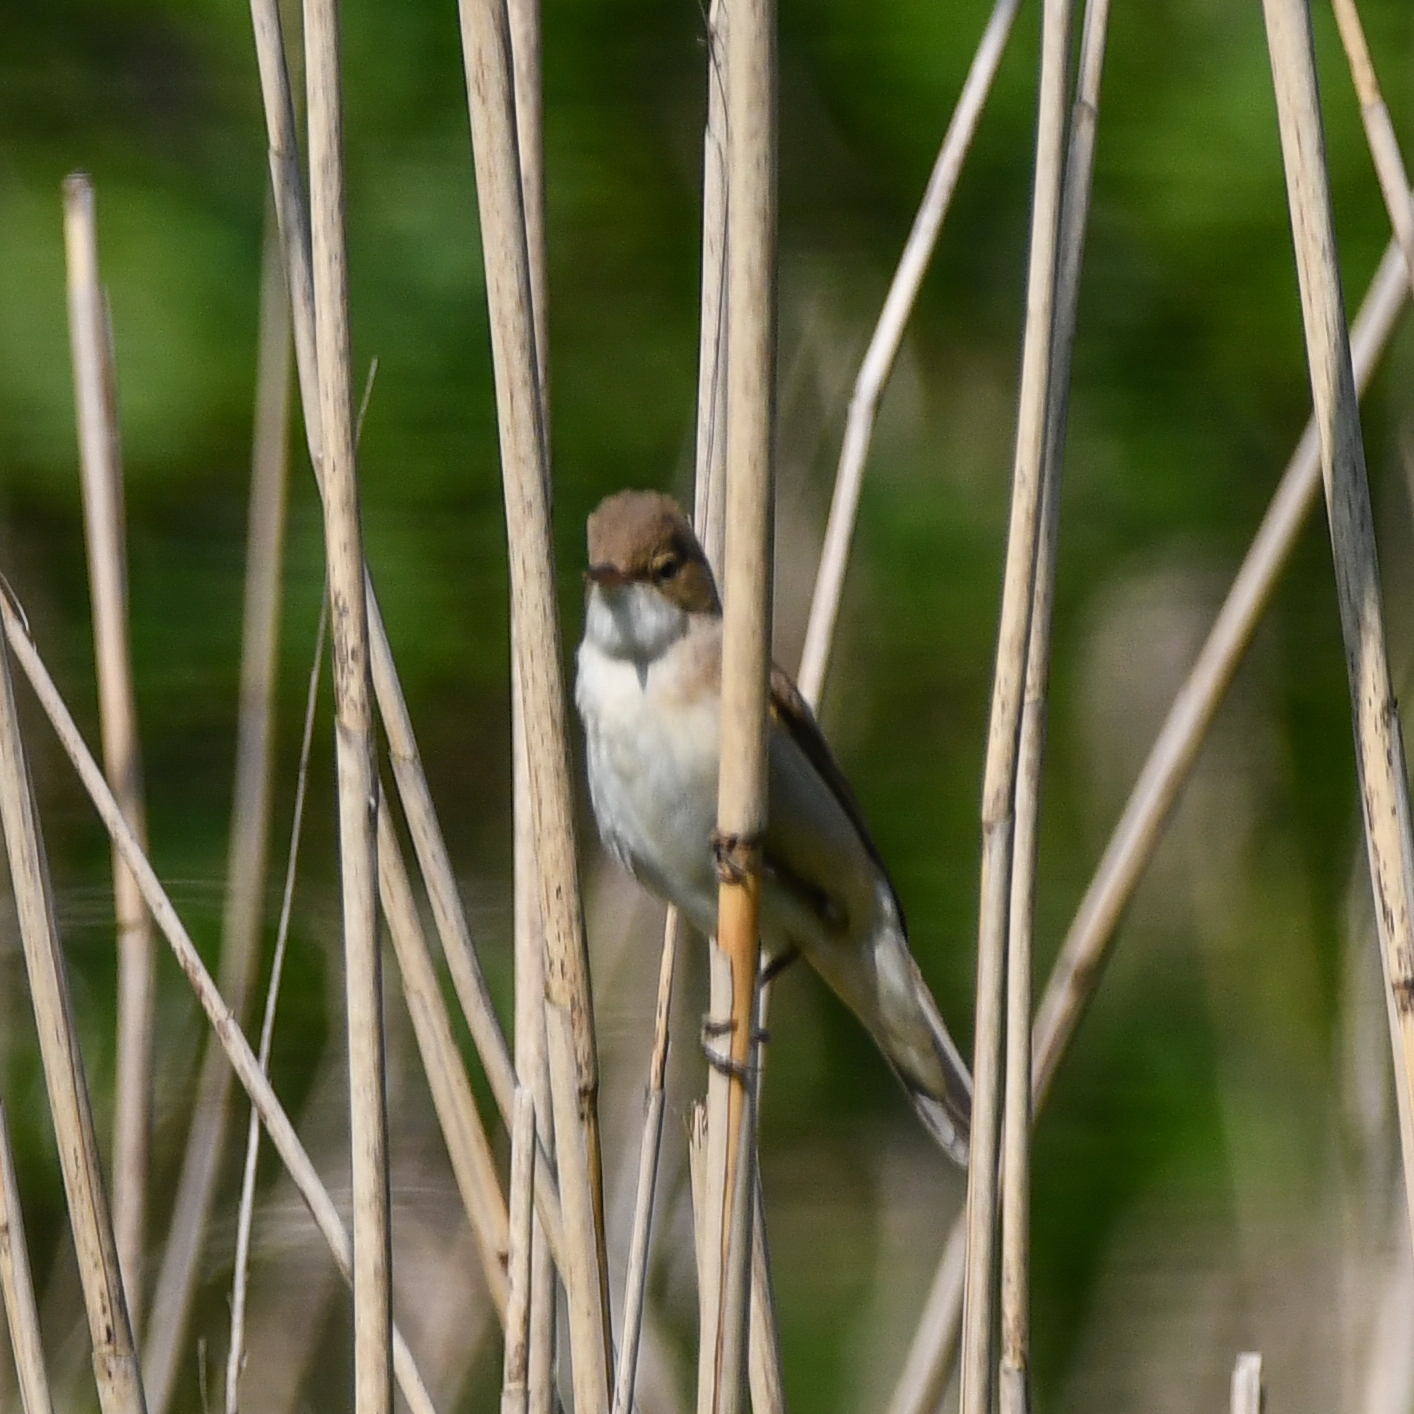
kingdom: Animalia
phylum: Chordata
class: Aves
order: Passeriformes
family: Acrocephalidae
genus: Acrocephalus
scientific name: Acrocephalus scirpaceus
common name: Eurasian reed warbler
